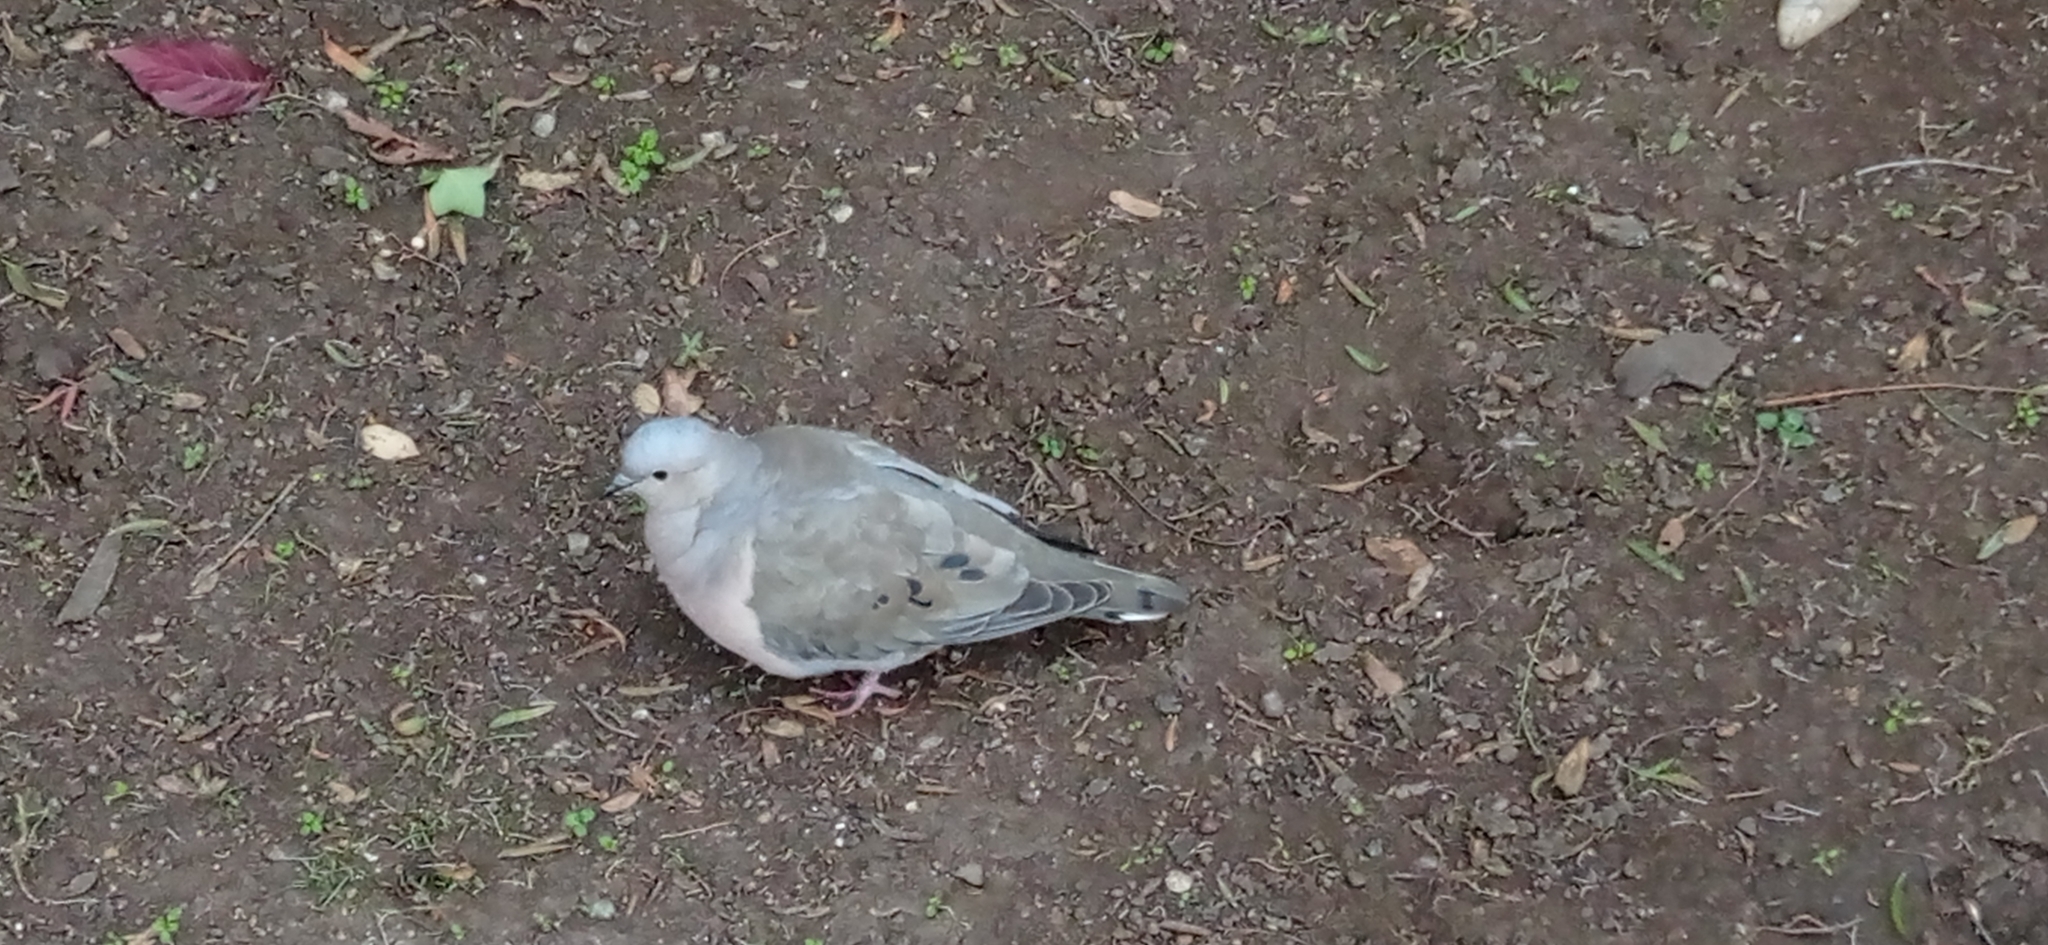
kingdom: Animalia
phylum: Chordata
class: Aves
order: Columbiformes
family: Columbidae
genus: Zenaida
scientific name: Zenaida auriculata
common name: Eared dove
